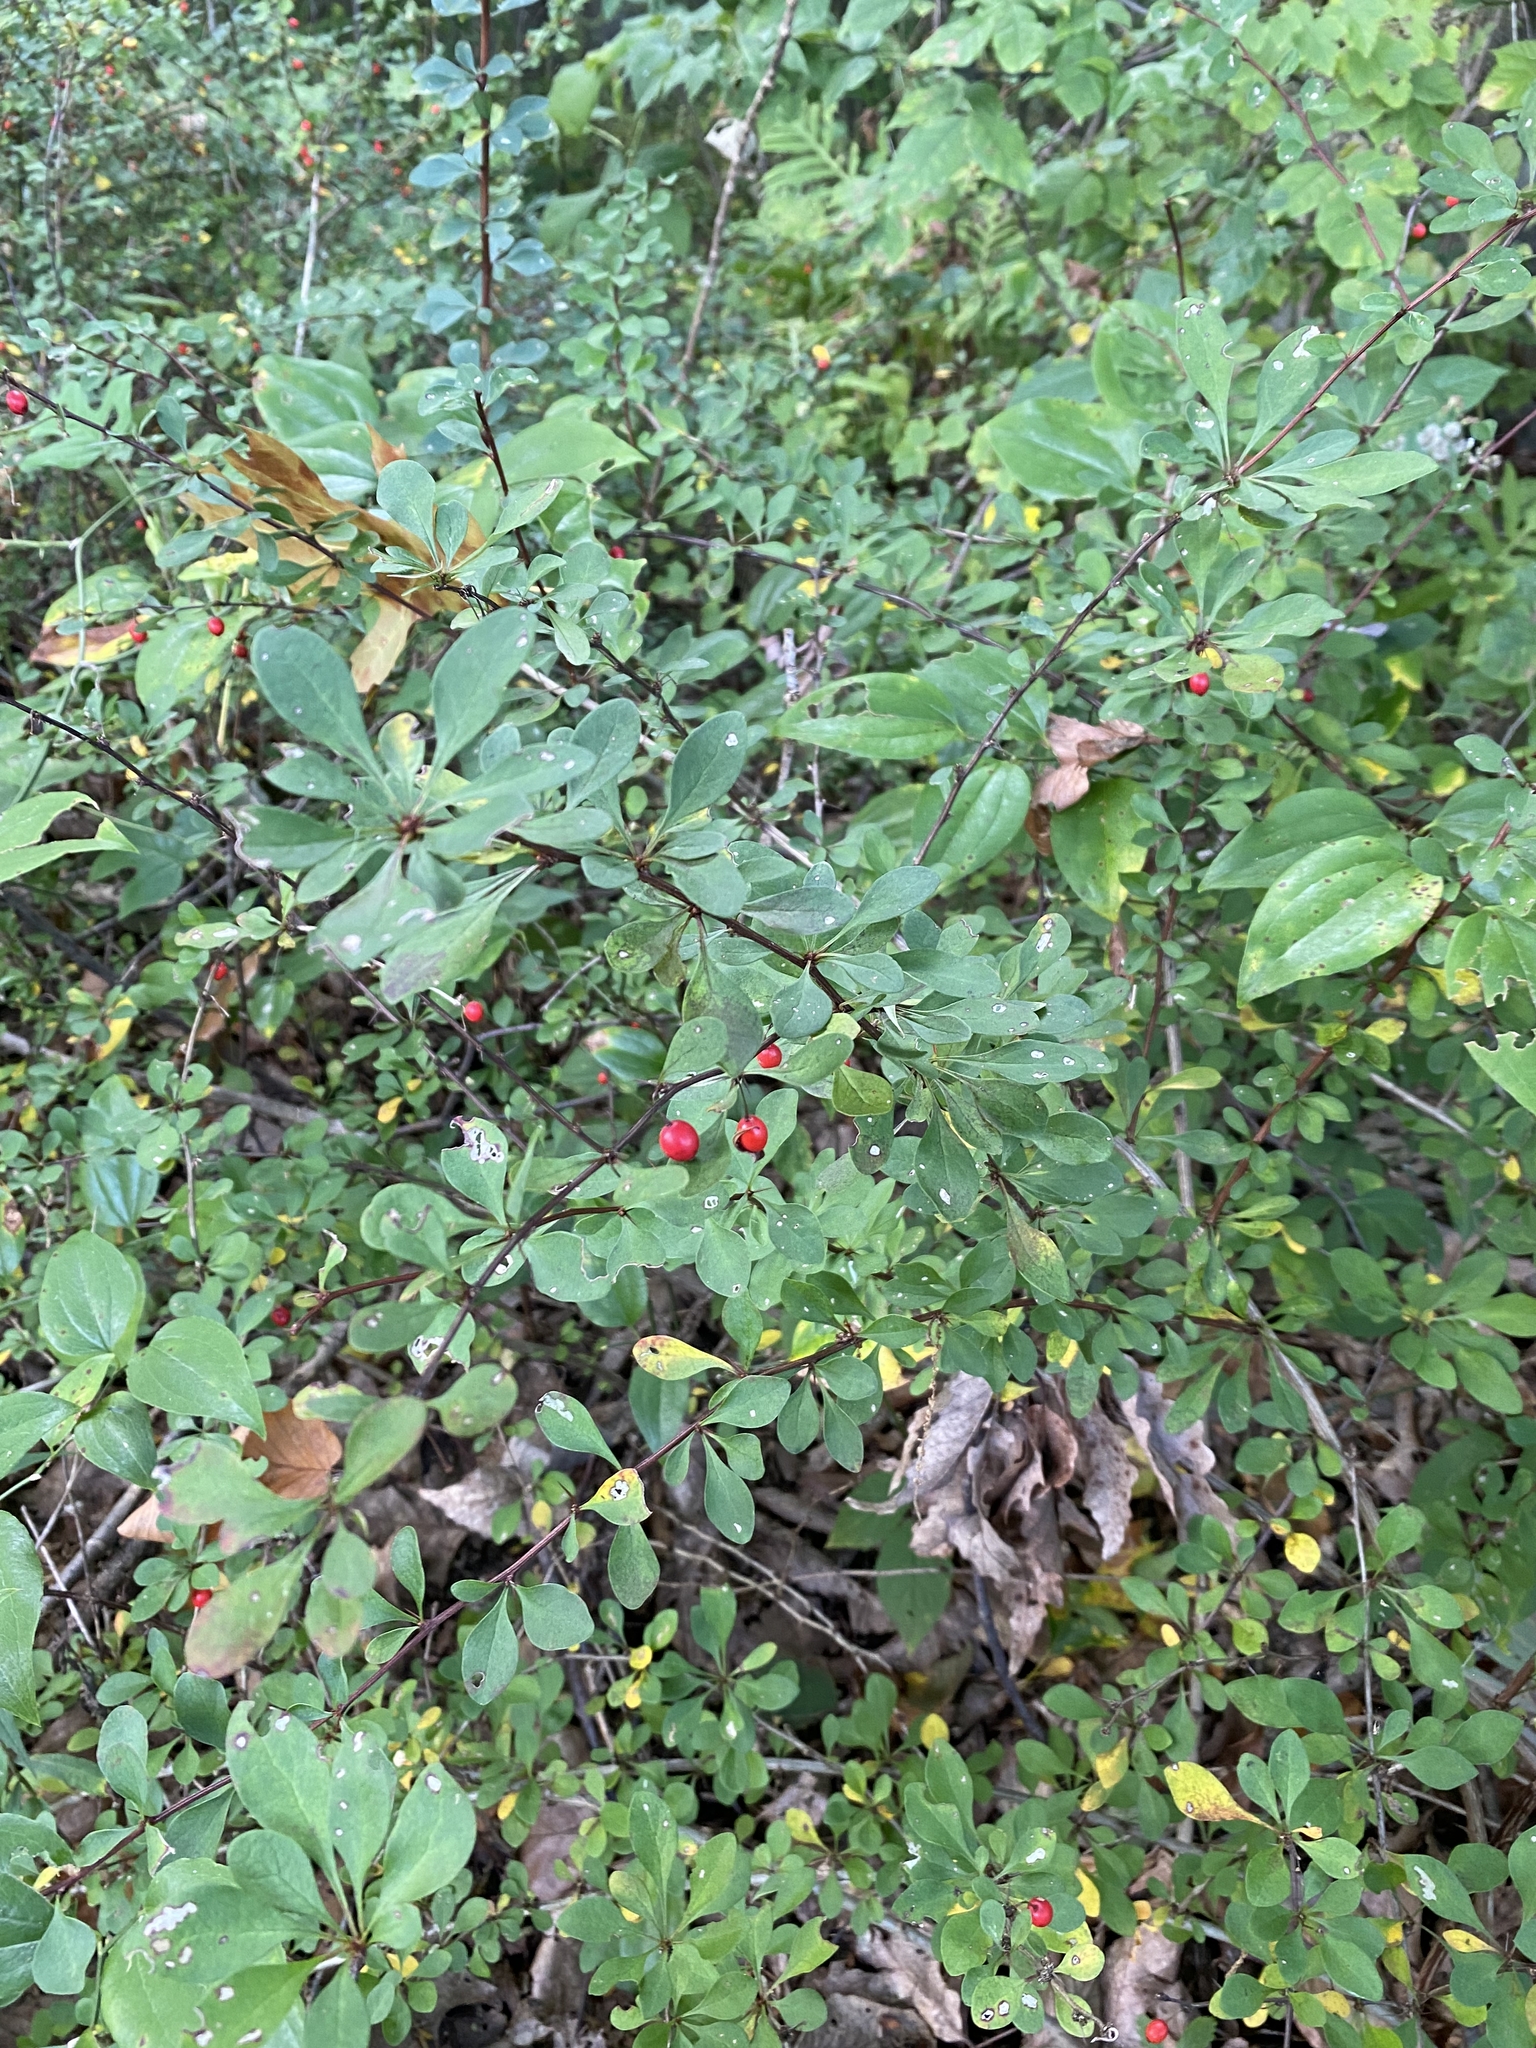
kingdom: Plantae
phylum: Tracheophyta
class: Magnoliopsida
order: Ranunculales
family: Berberidaceae
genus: Berberis
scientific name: Berberis thunbergii
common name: Japanese barberry
